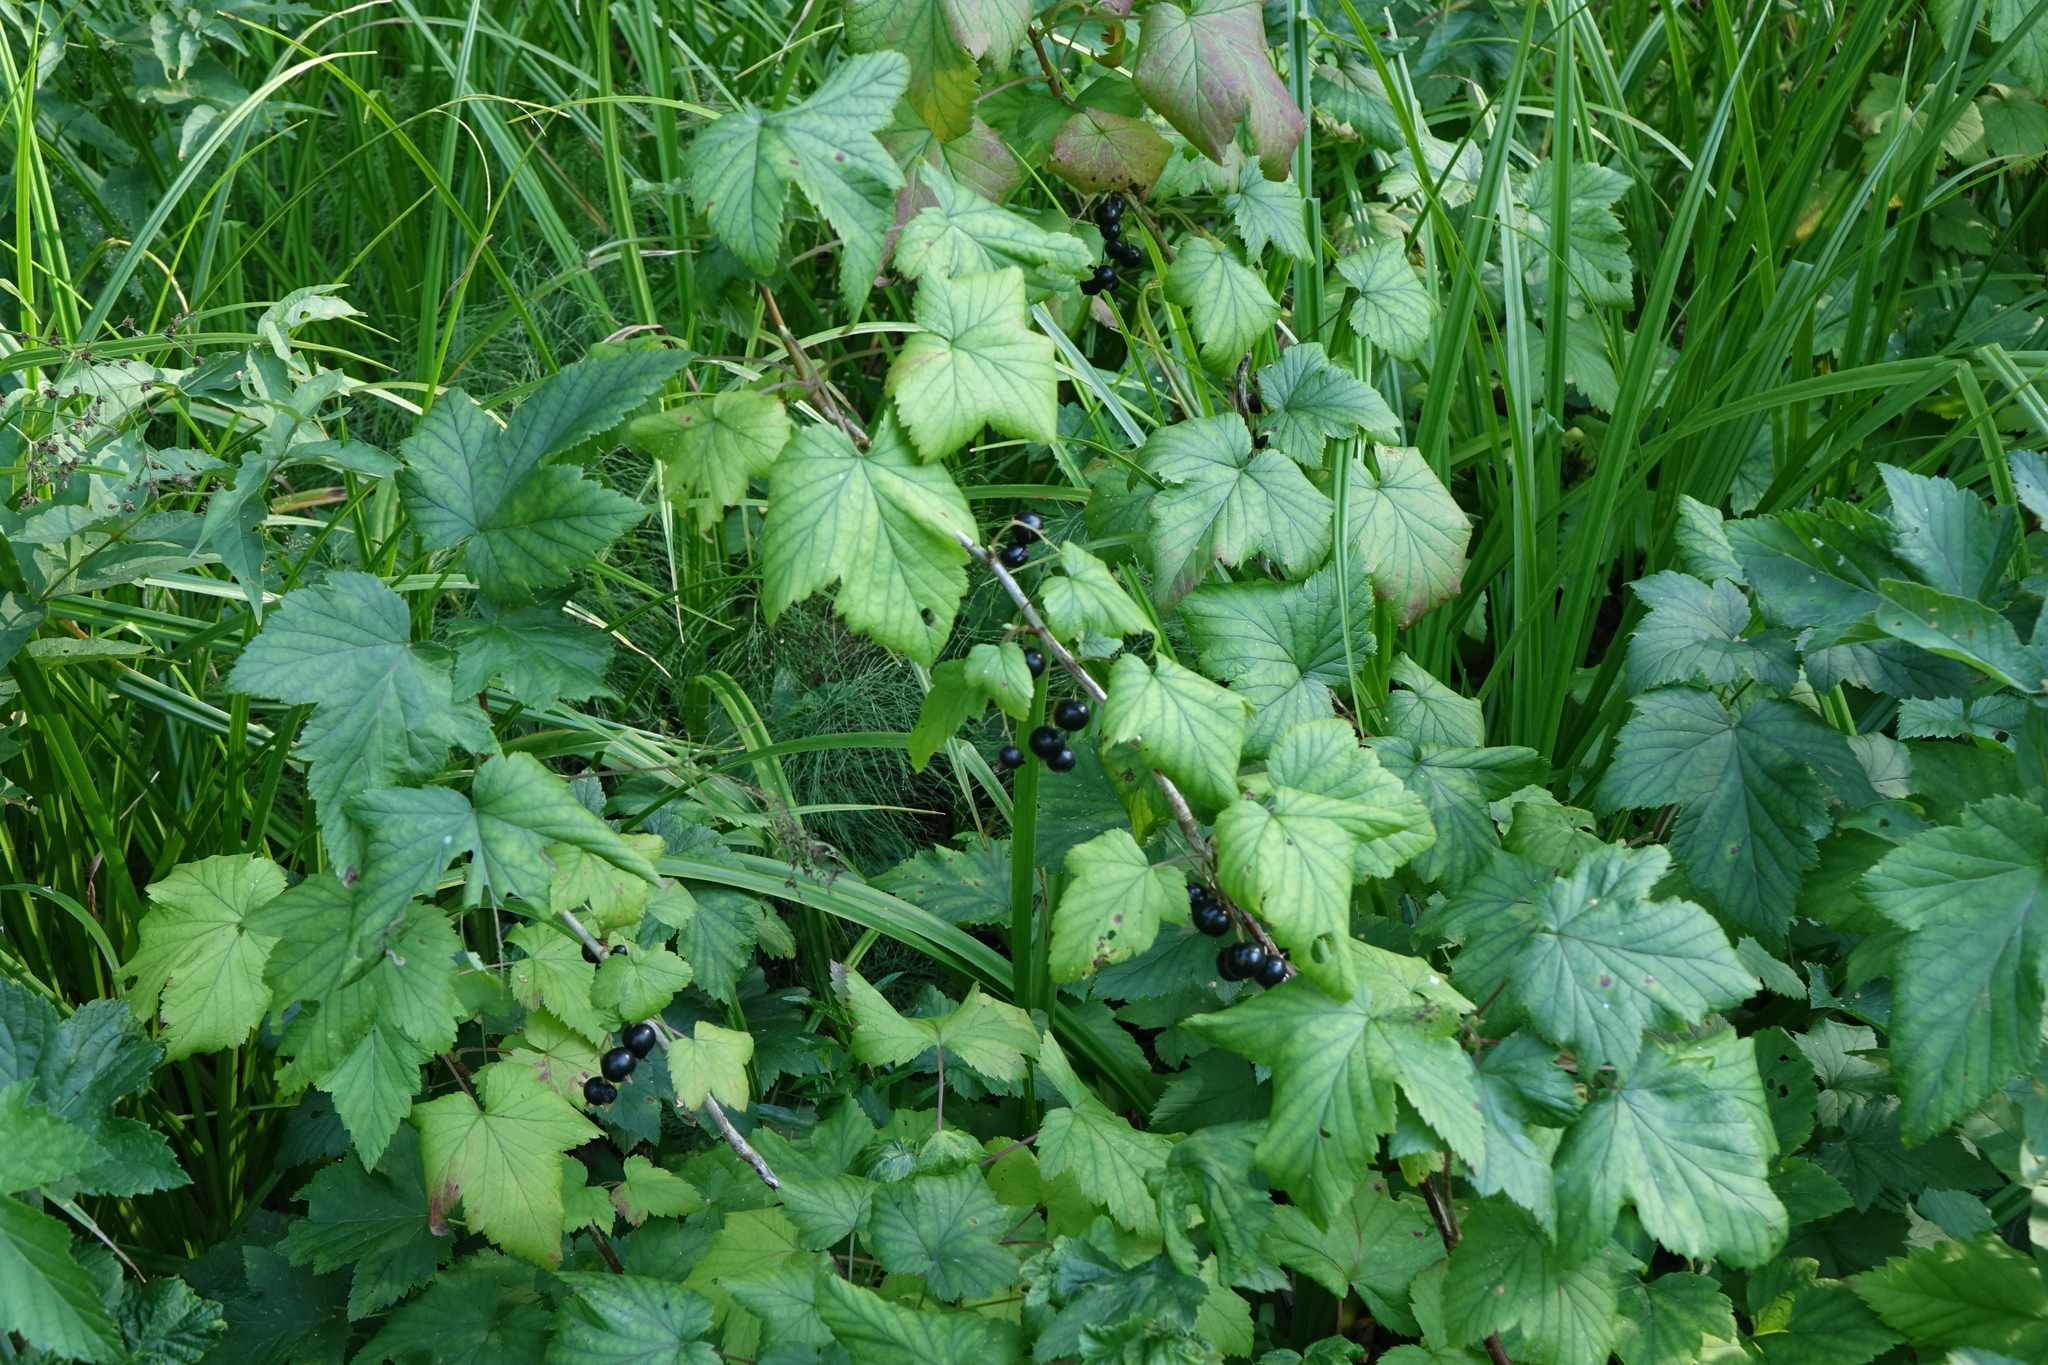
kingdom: Plantae
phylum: Tracheophyta
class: Magnoliopsida
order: Saxifragales
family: Grossulariaceae
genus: Ribes
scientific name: Ribes nigrum
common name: Black currant
